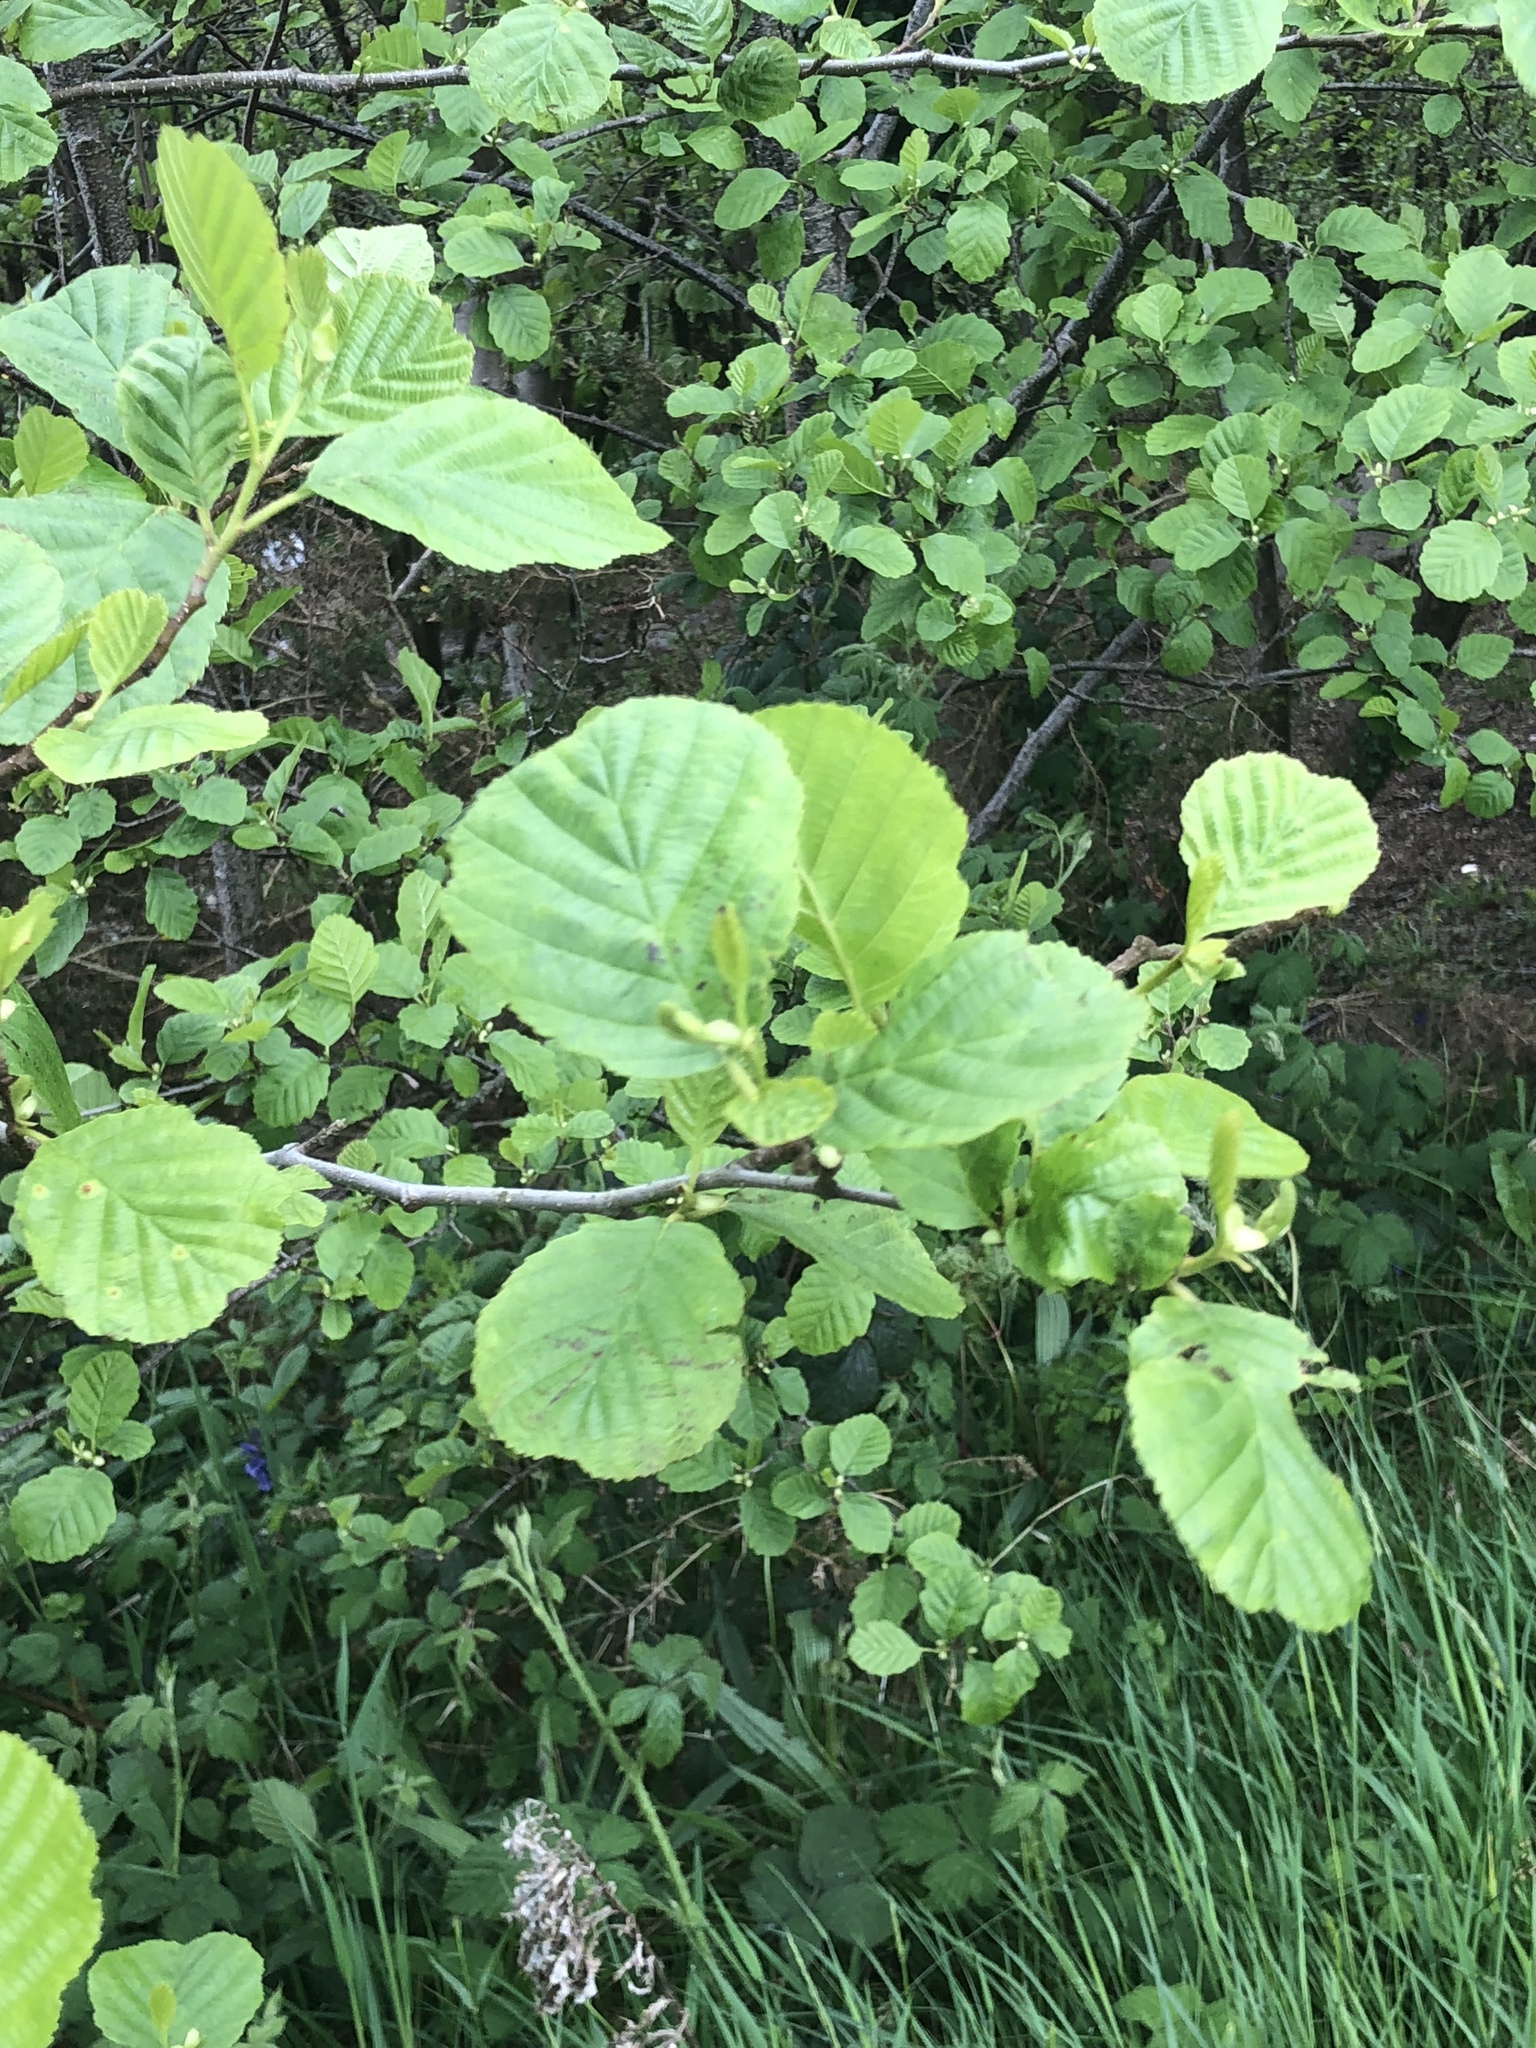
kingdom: Plantae
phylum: Tracheophyta
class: Magnoliopsida
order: Fagales
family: Betulaceae
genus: Alnus
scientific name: Alnus glutinosa
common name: Black alder
